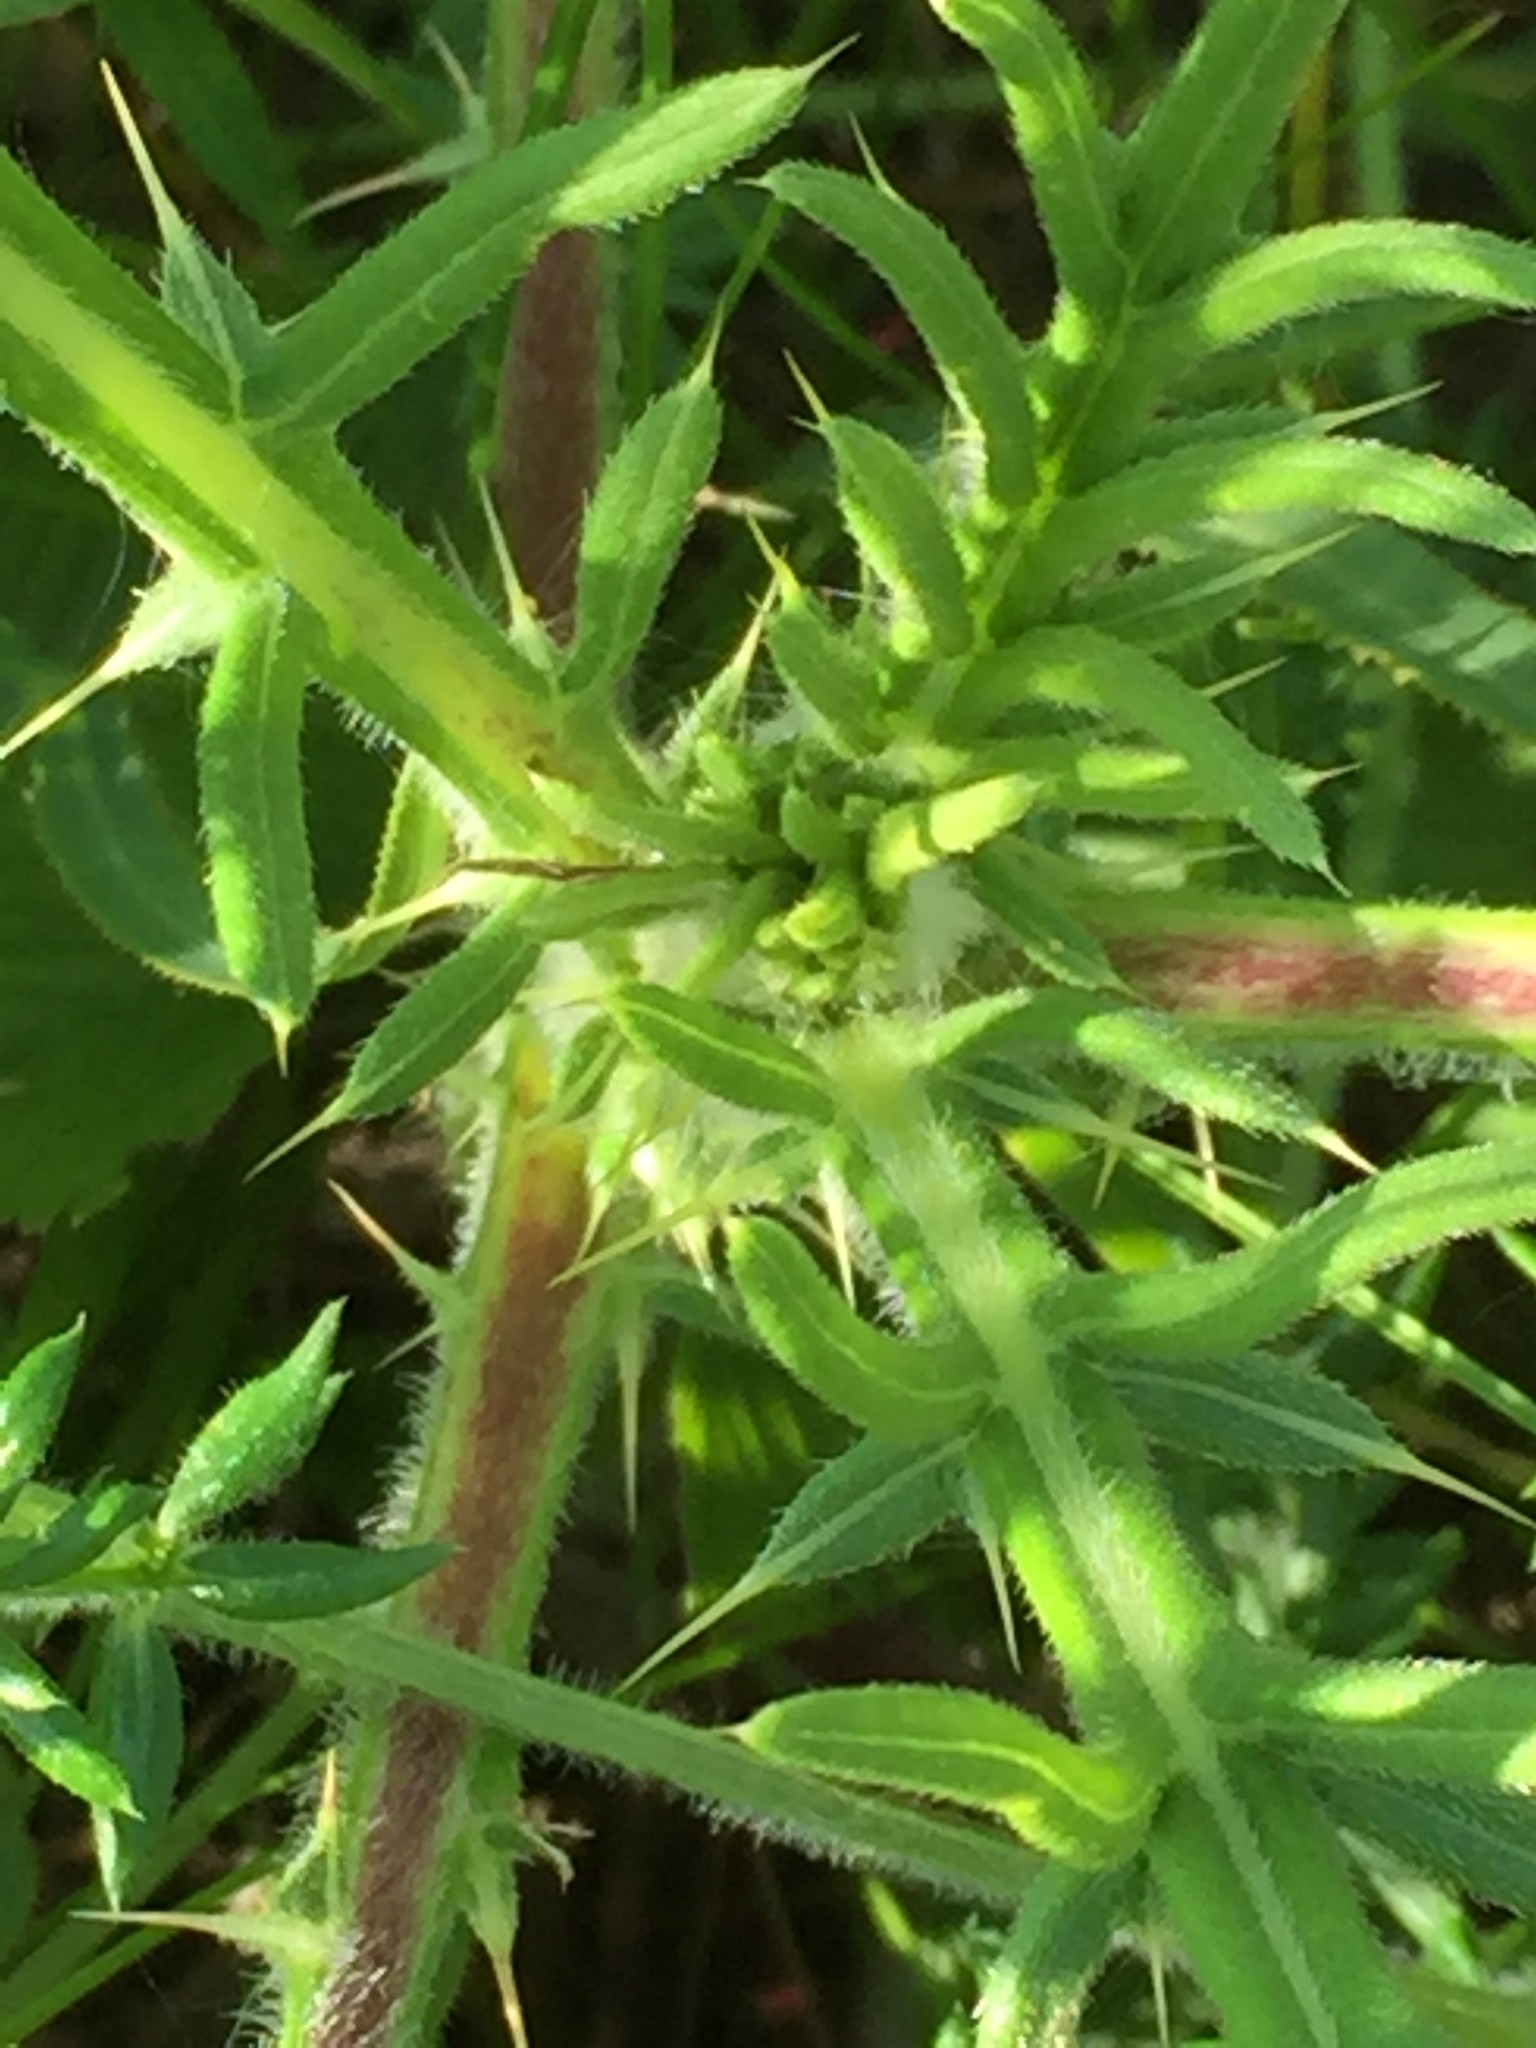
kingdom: Plantae
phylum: Tracheophyta
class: Magnoliopsida
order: Asterales
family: Asteraceae
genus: Cirsium
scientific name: Cirsium serrulatum
